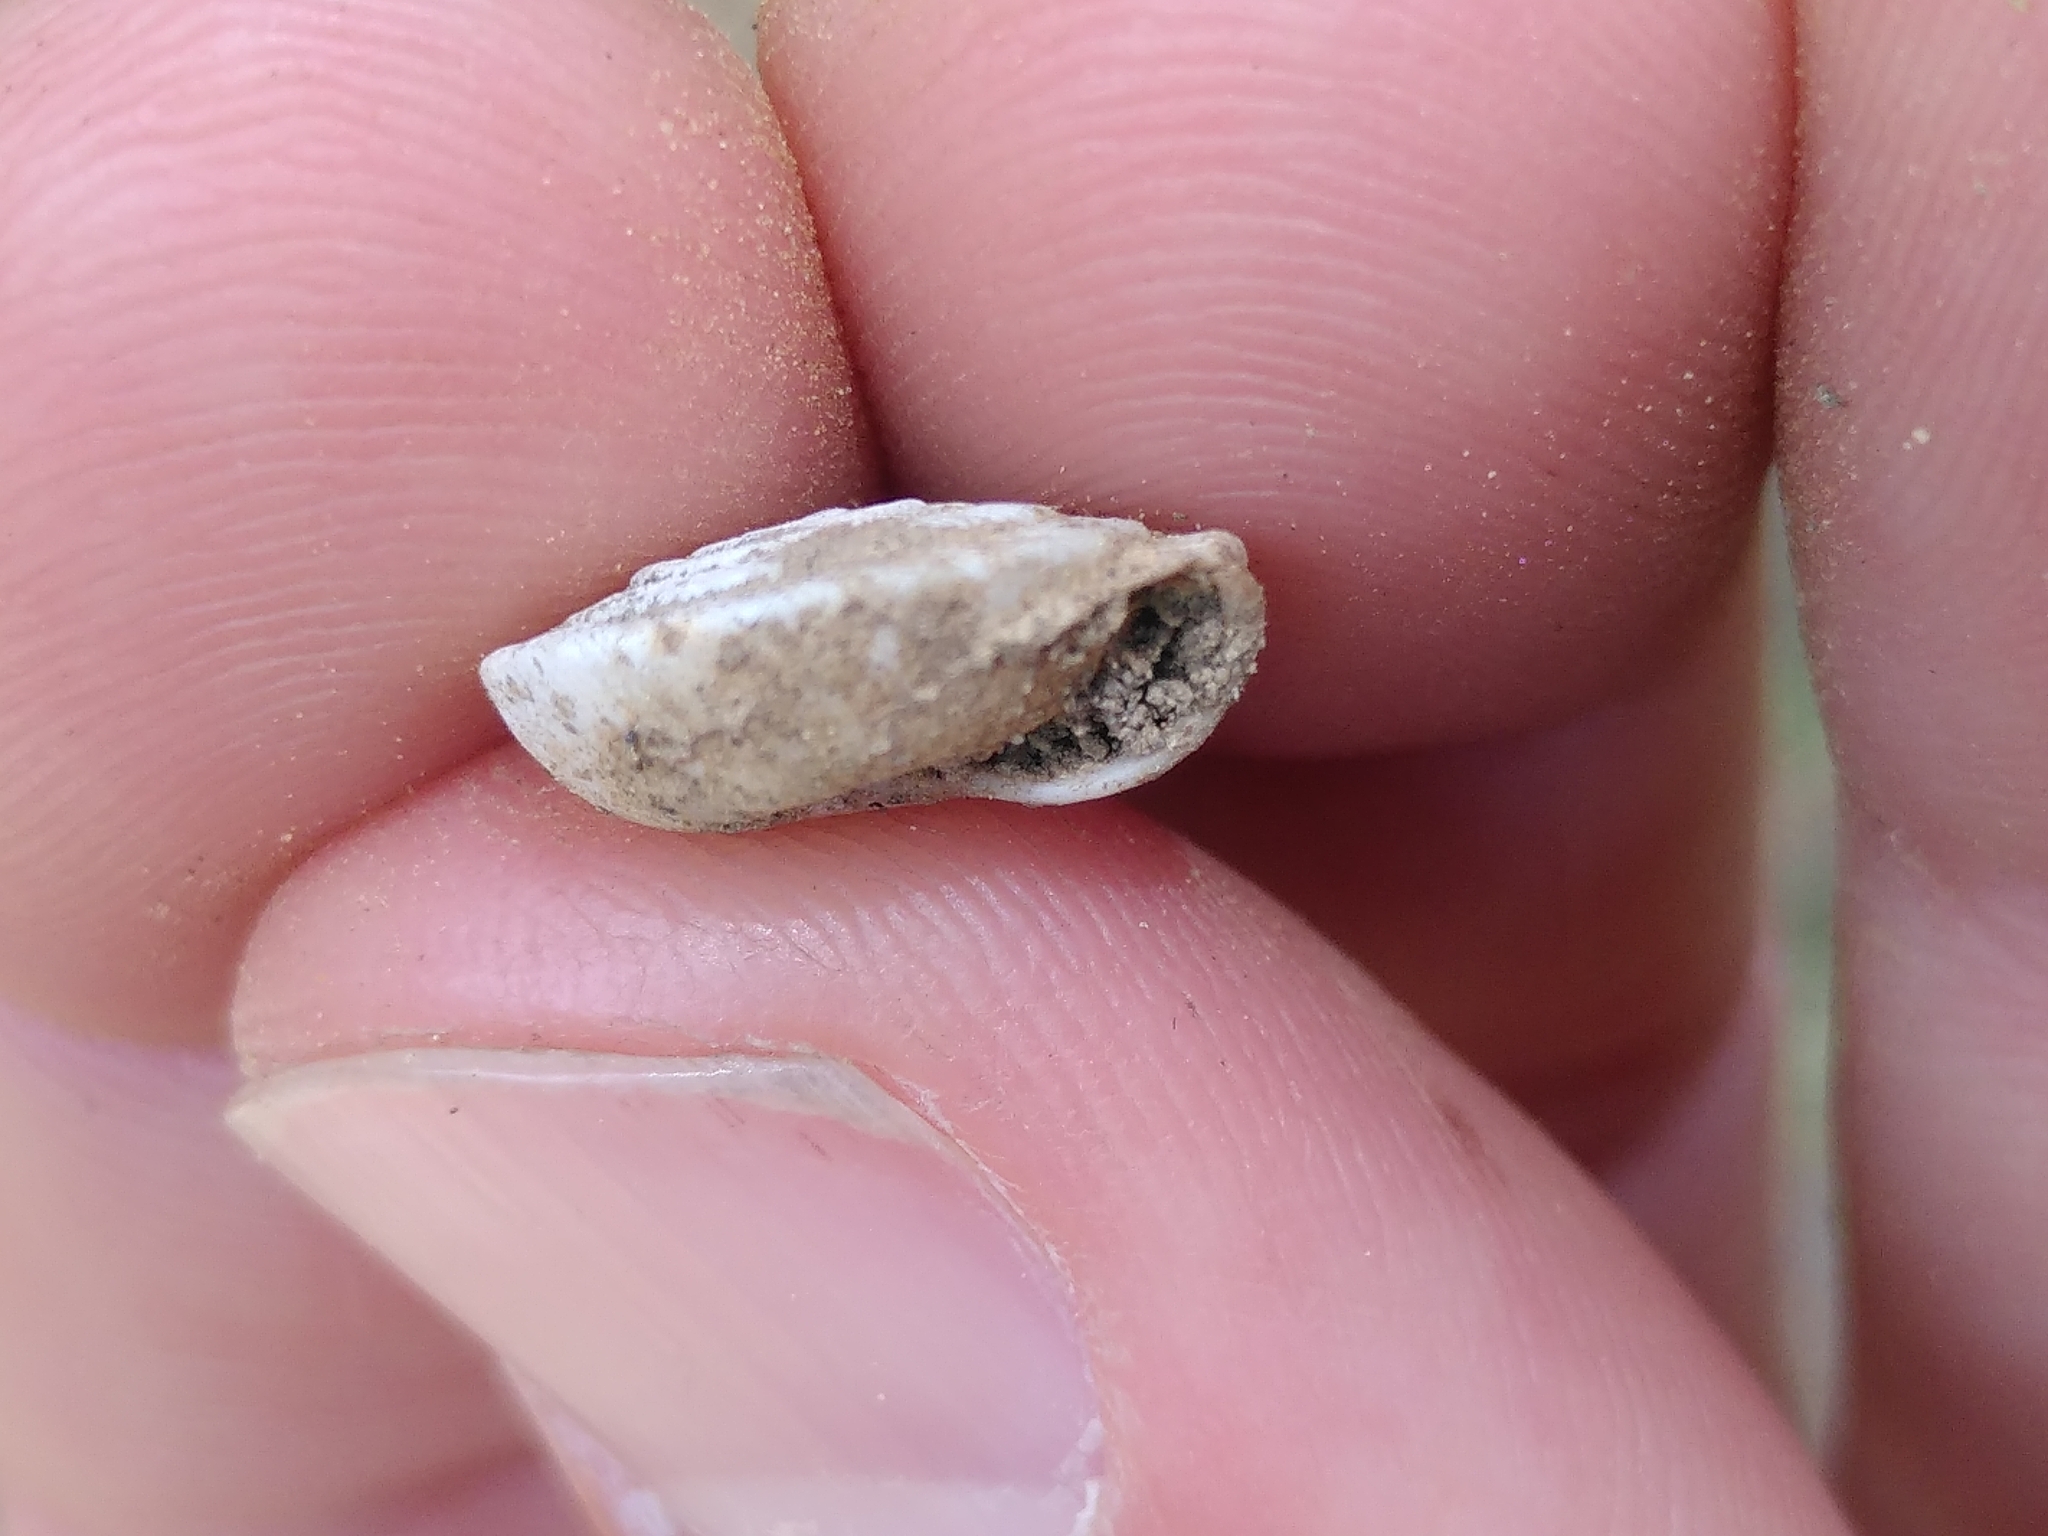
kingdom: Animalia
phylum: Mollusca
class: Gastropoda
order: Stylommatophora
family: Helicodontidae
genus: Lindholmiola
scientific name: Lindholmiola lens
